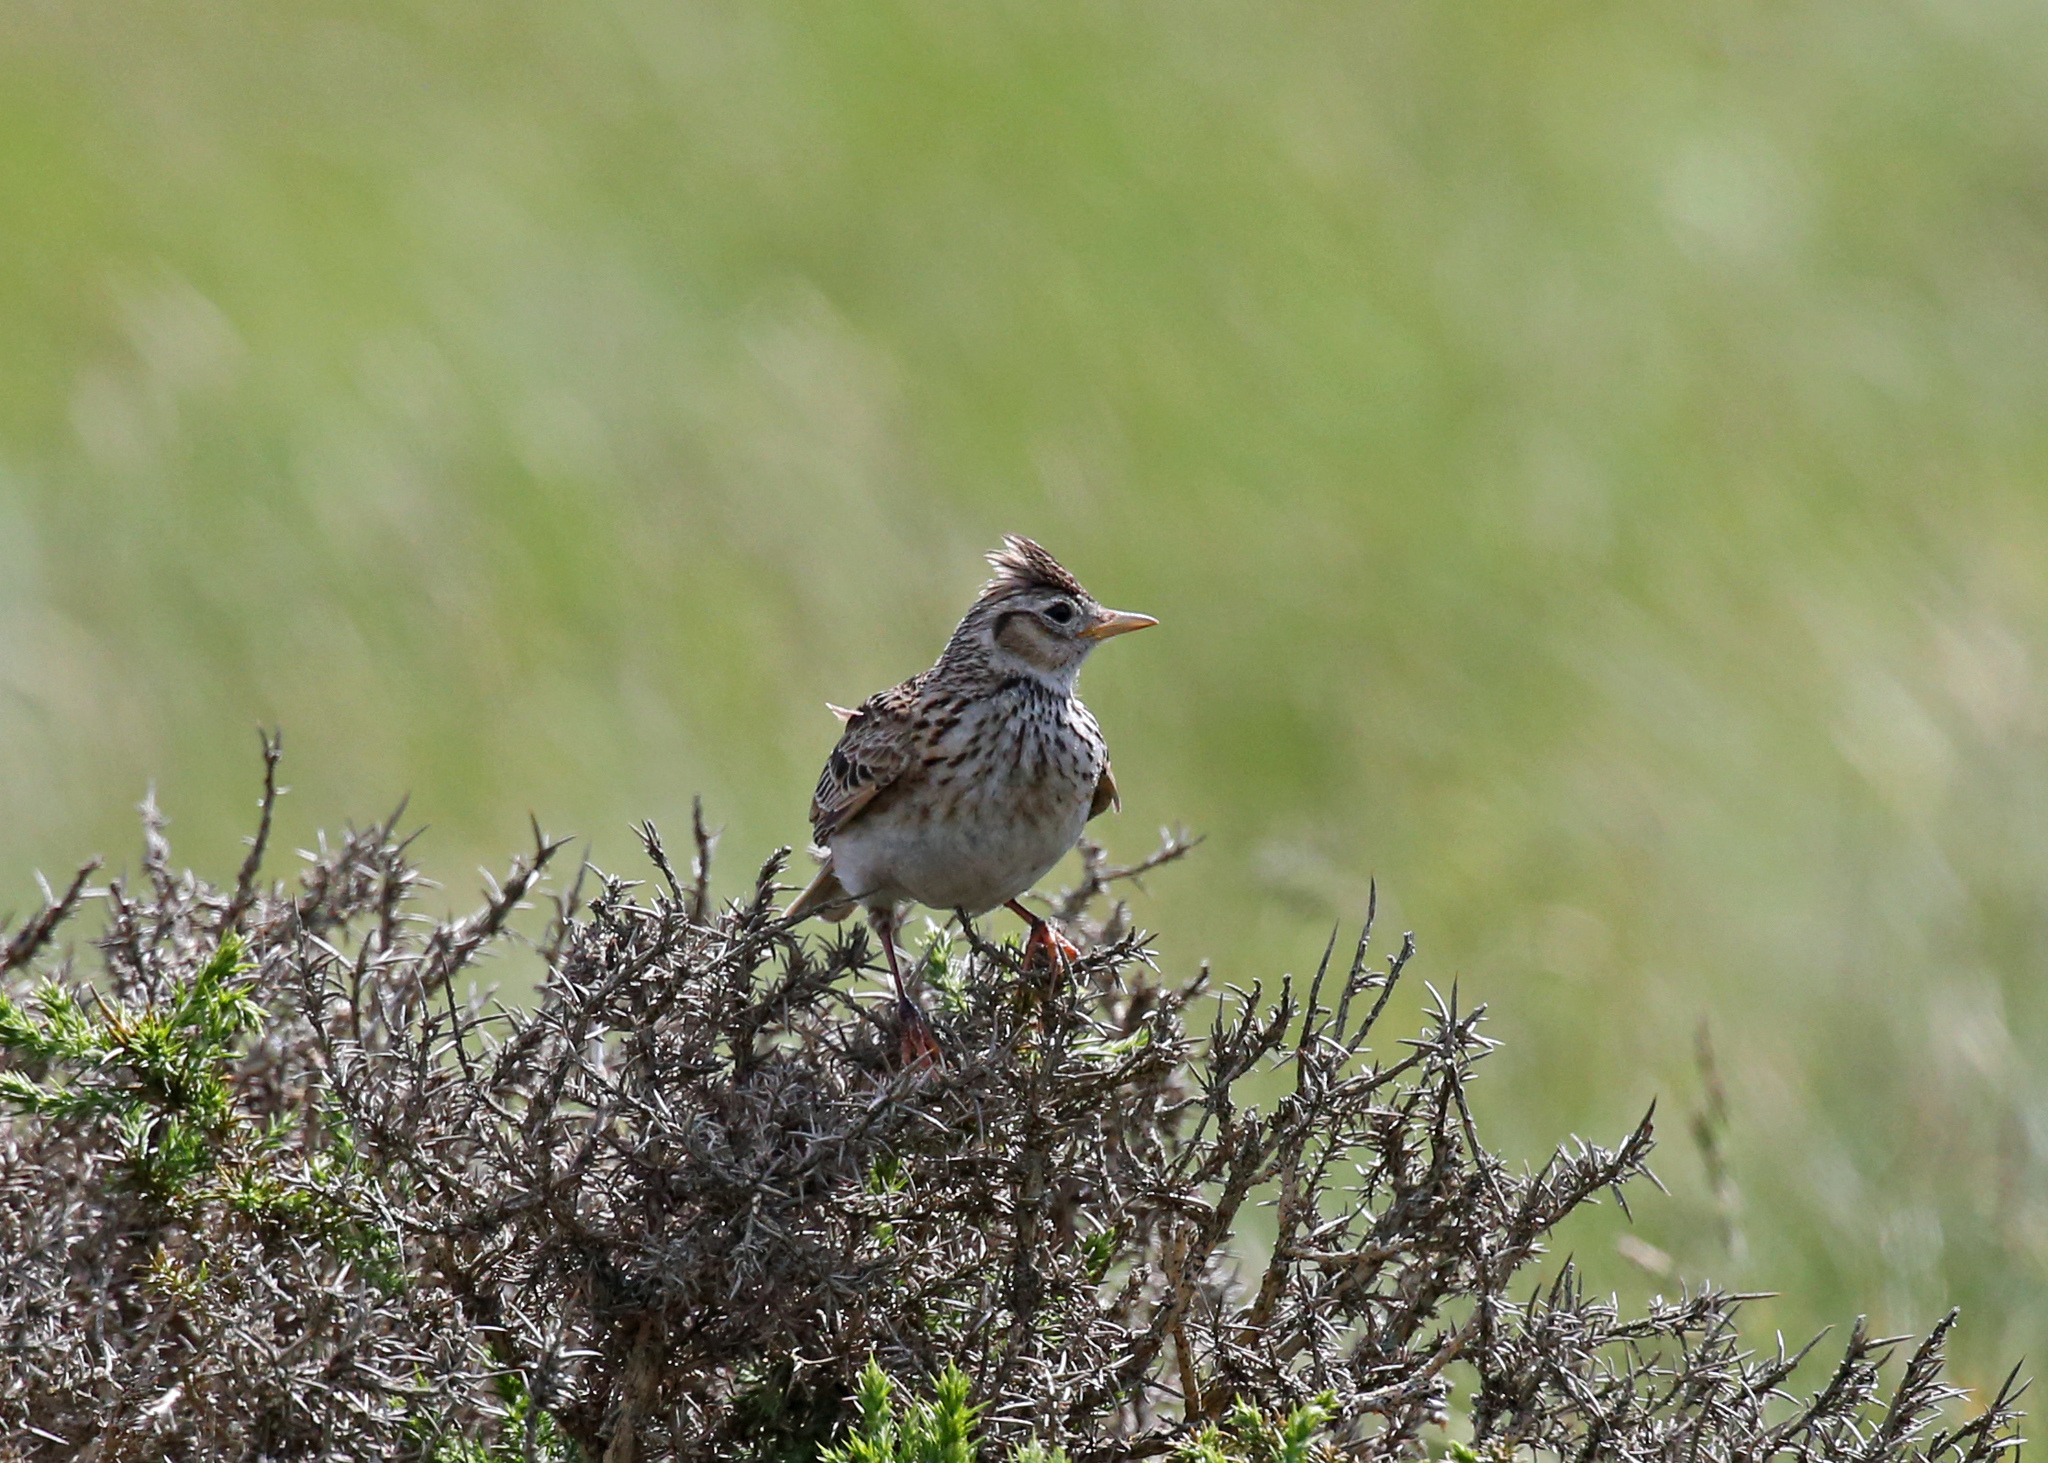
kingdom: Animalia
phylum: Chordata
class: Aves
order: Passeriformes
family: Alaudidae
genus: Alauda
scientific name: Alauda arvensis
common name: Eurasian skylark
